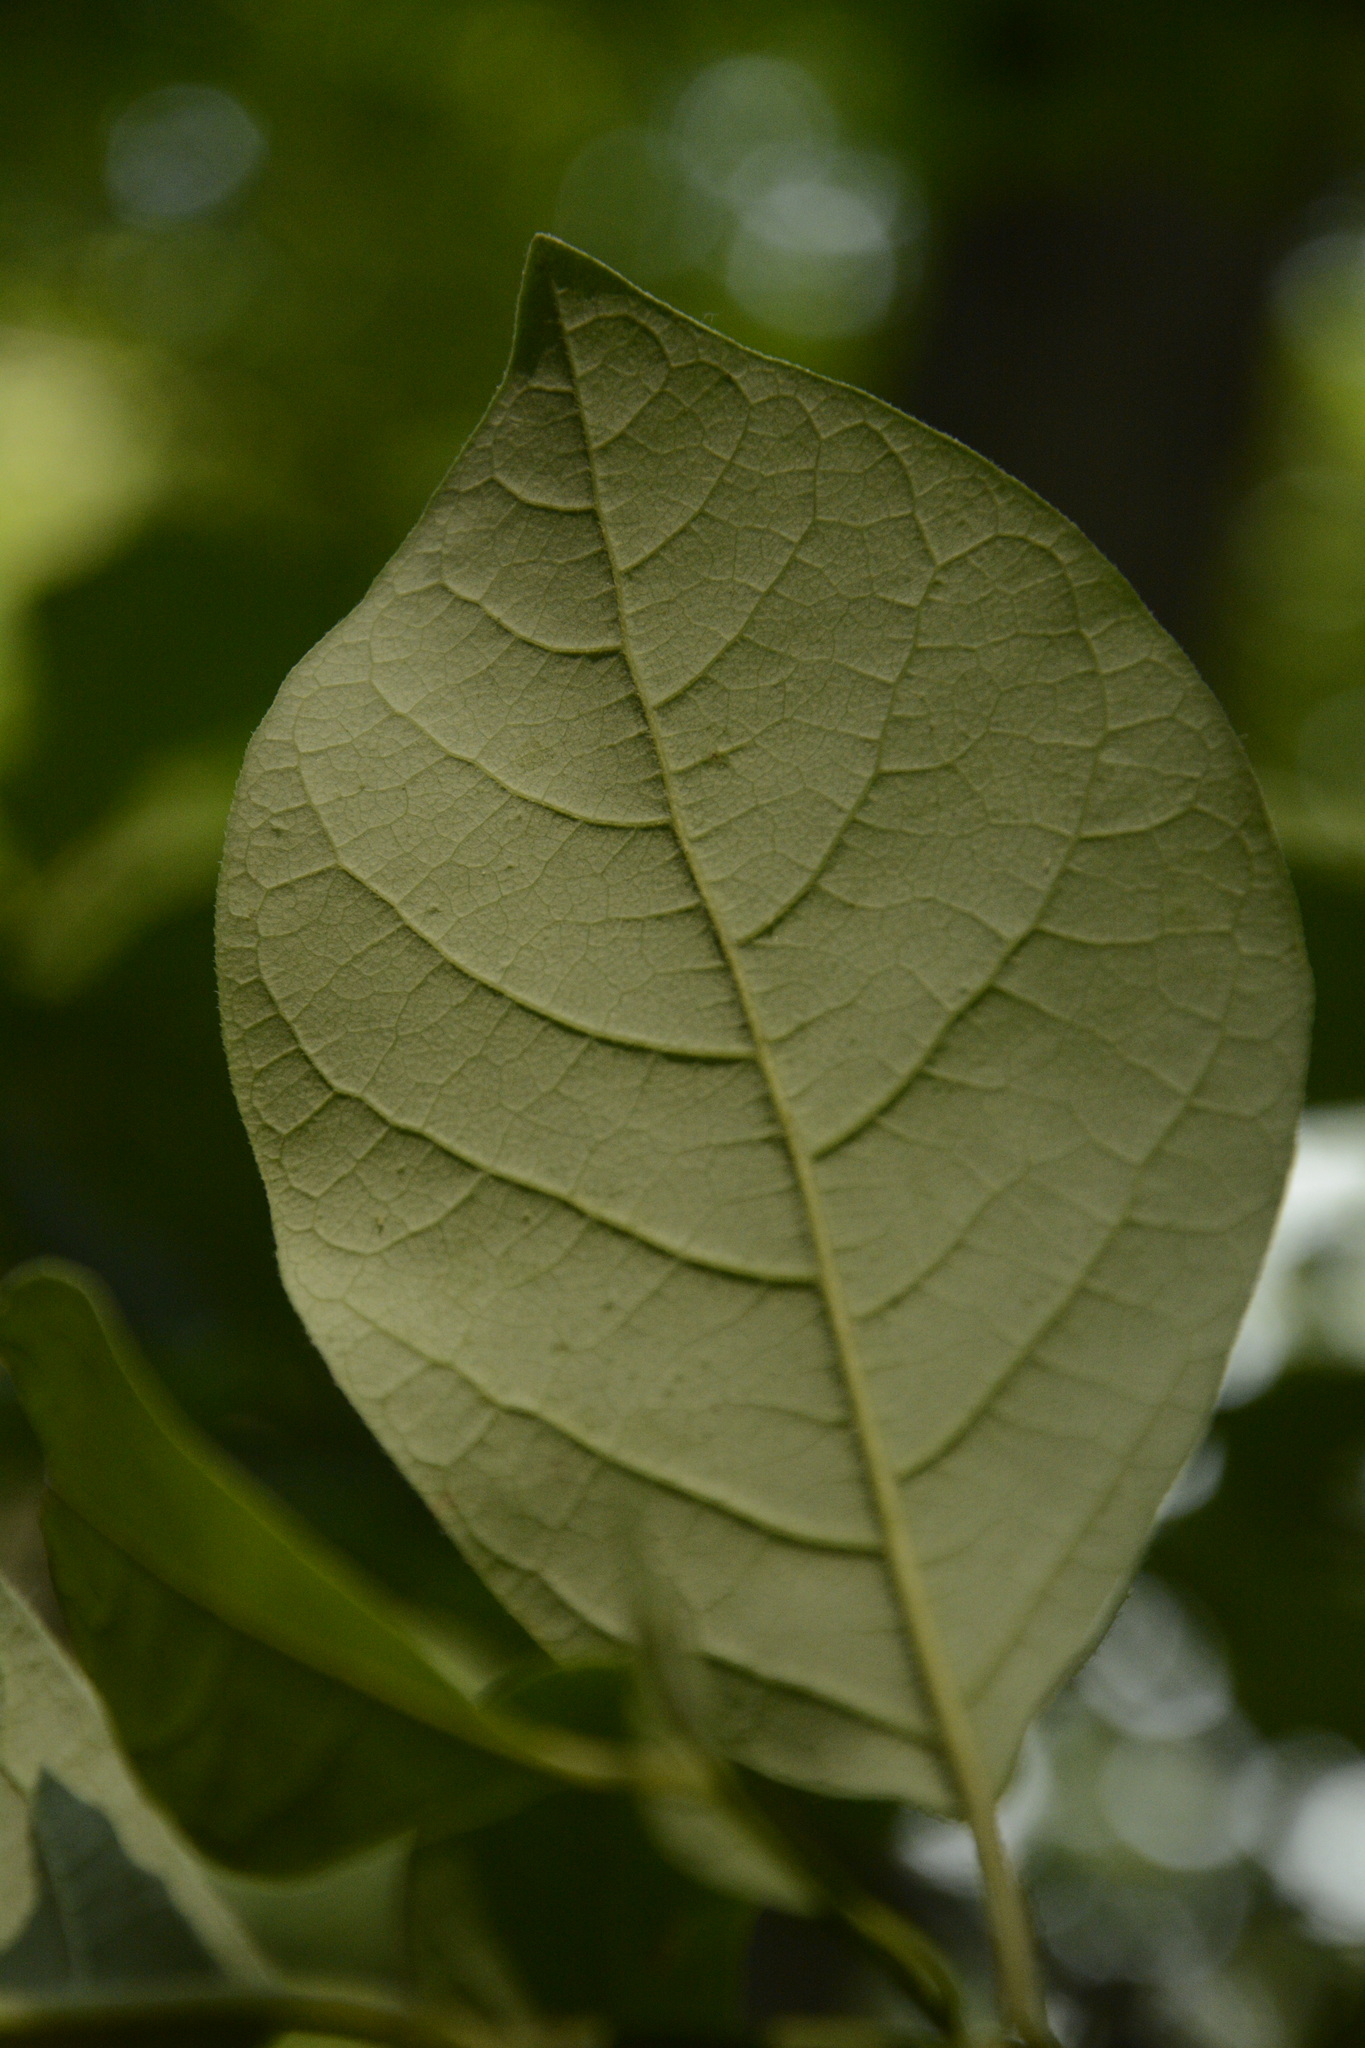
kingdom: Plantae
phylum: Tracheophyta
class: Magnoliopsida
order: Laurales
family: Lauraceae
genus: Lindera
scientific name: Lindera benzoin
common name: Spicebush
